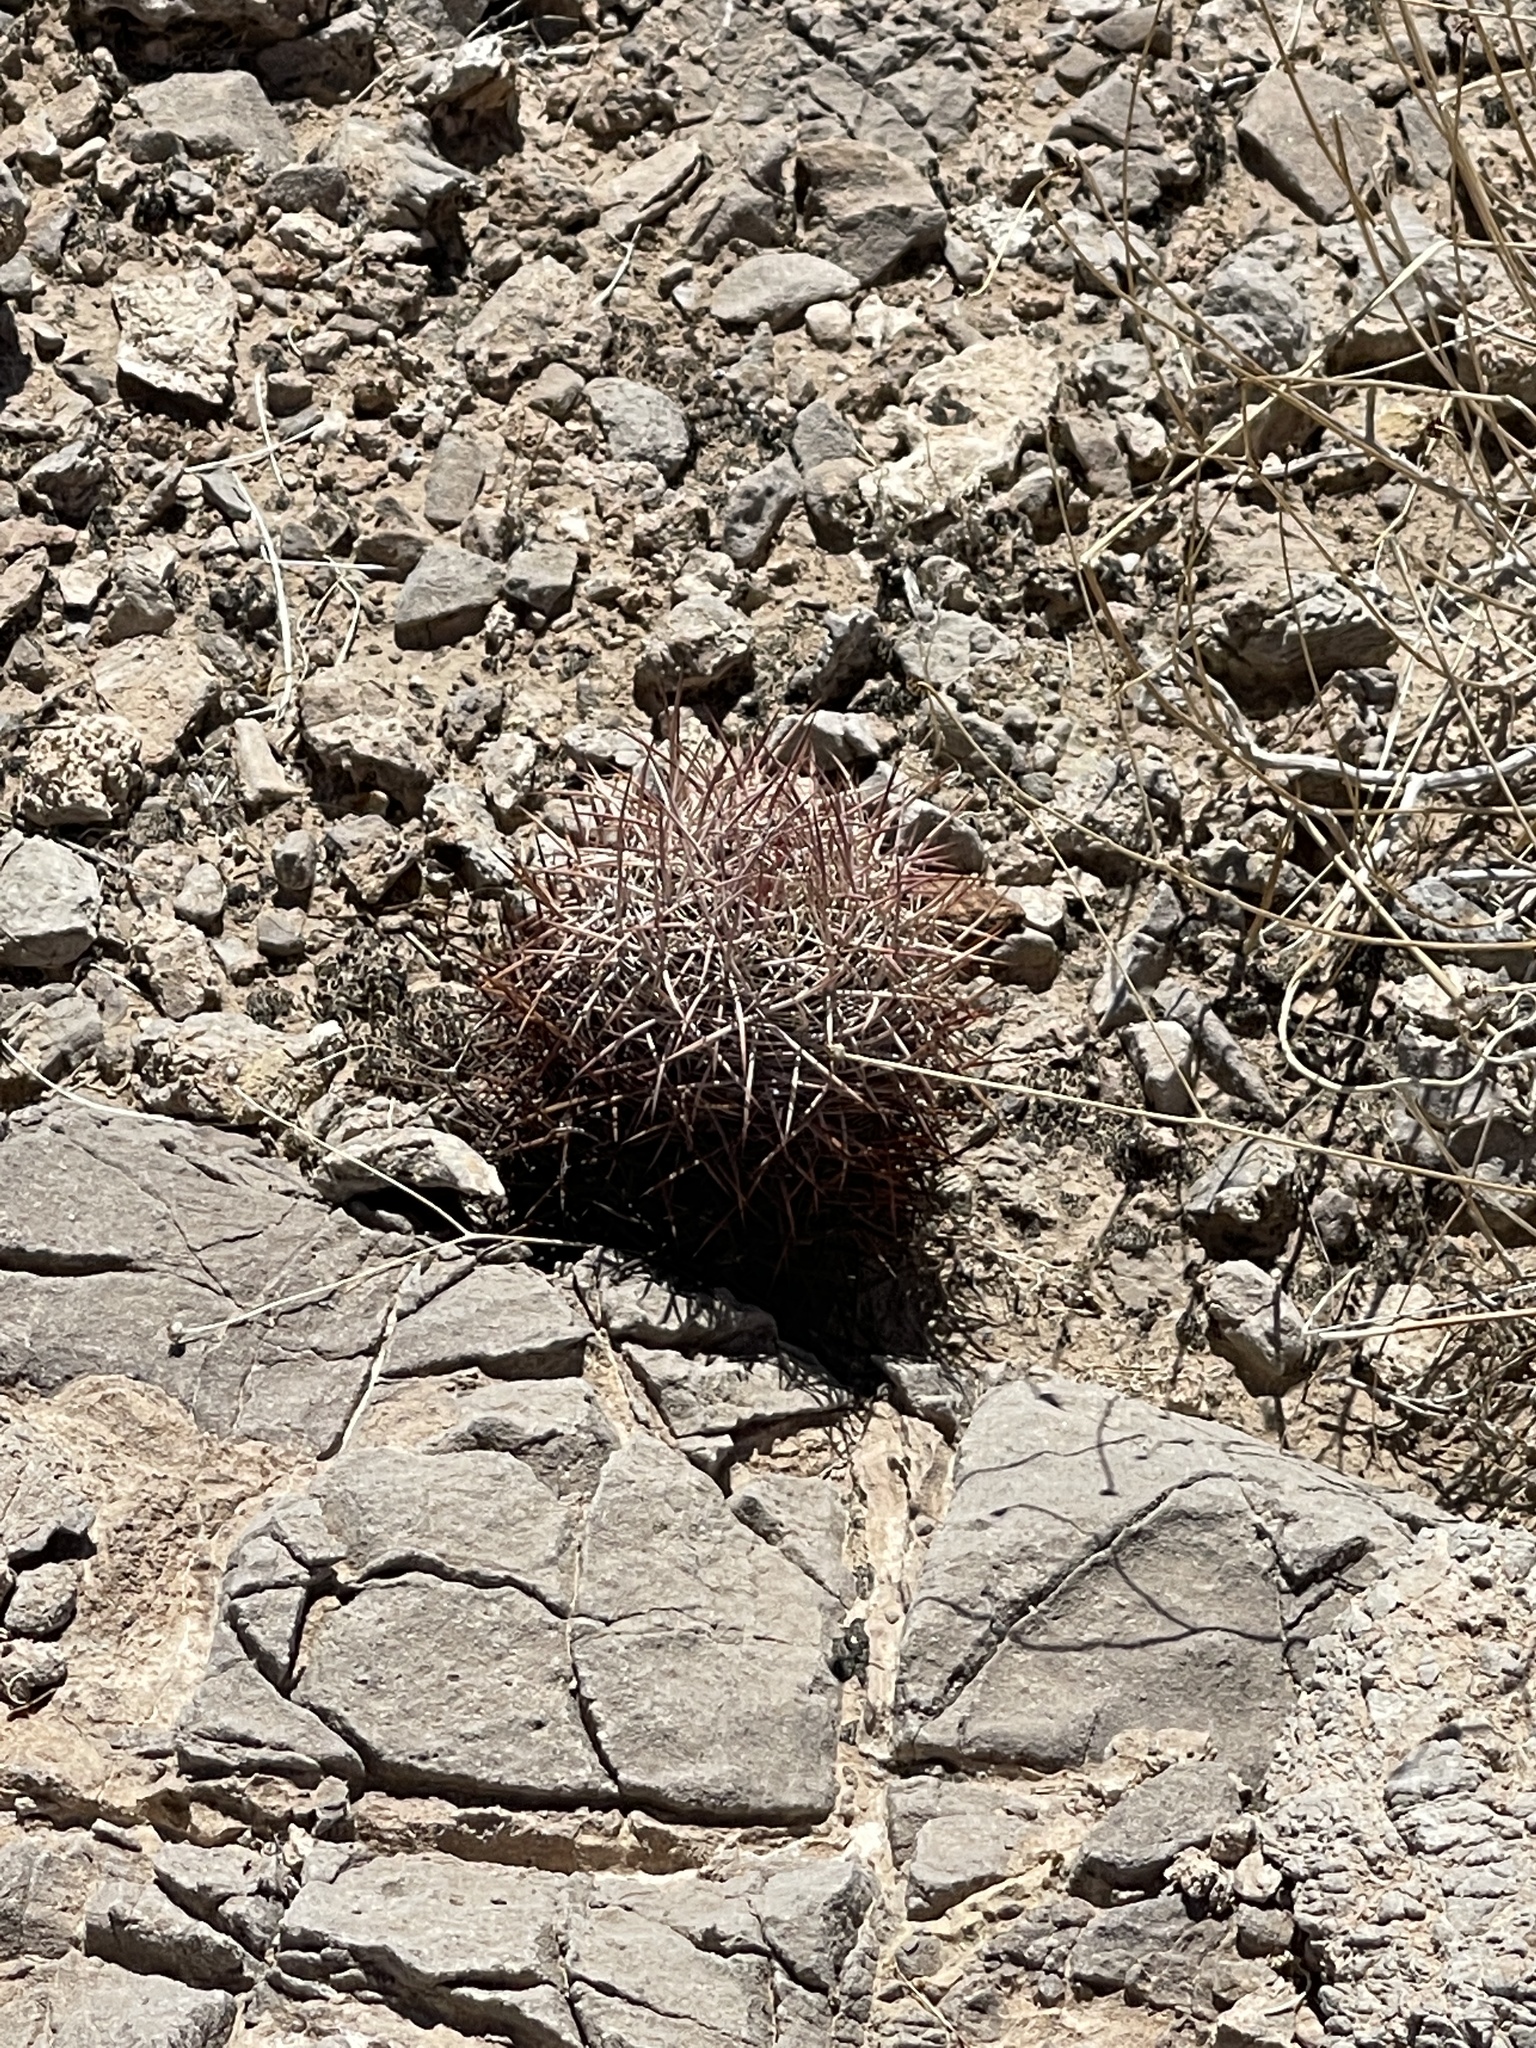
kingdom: Plantae
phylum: Tracheophyta
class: Magnoliopsida
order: Caryophyllales
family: Cactaceae
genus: Sclerocactus
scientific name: Sclerocactus johnsonii
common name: Eight-spine fishhook cactus
